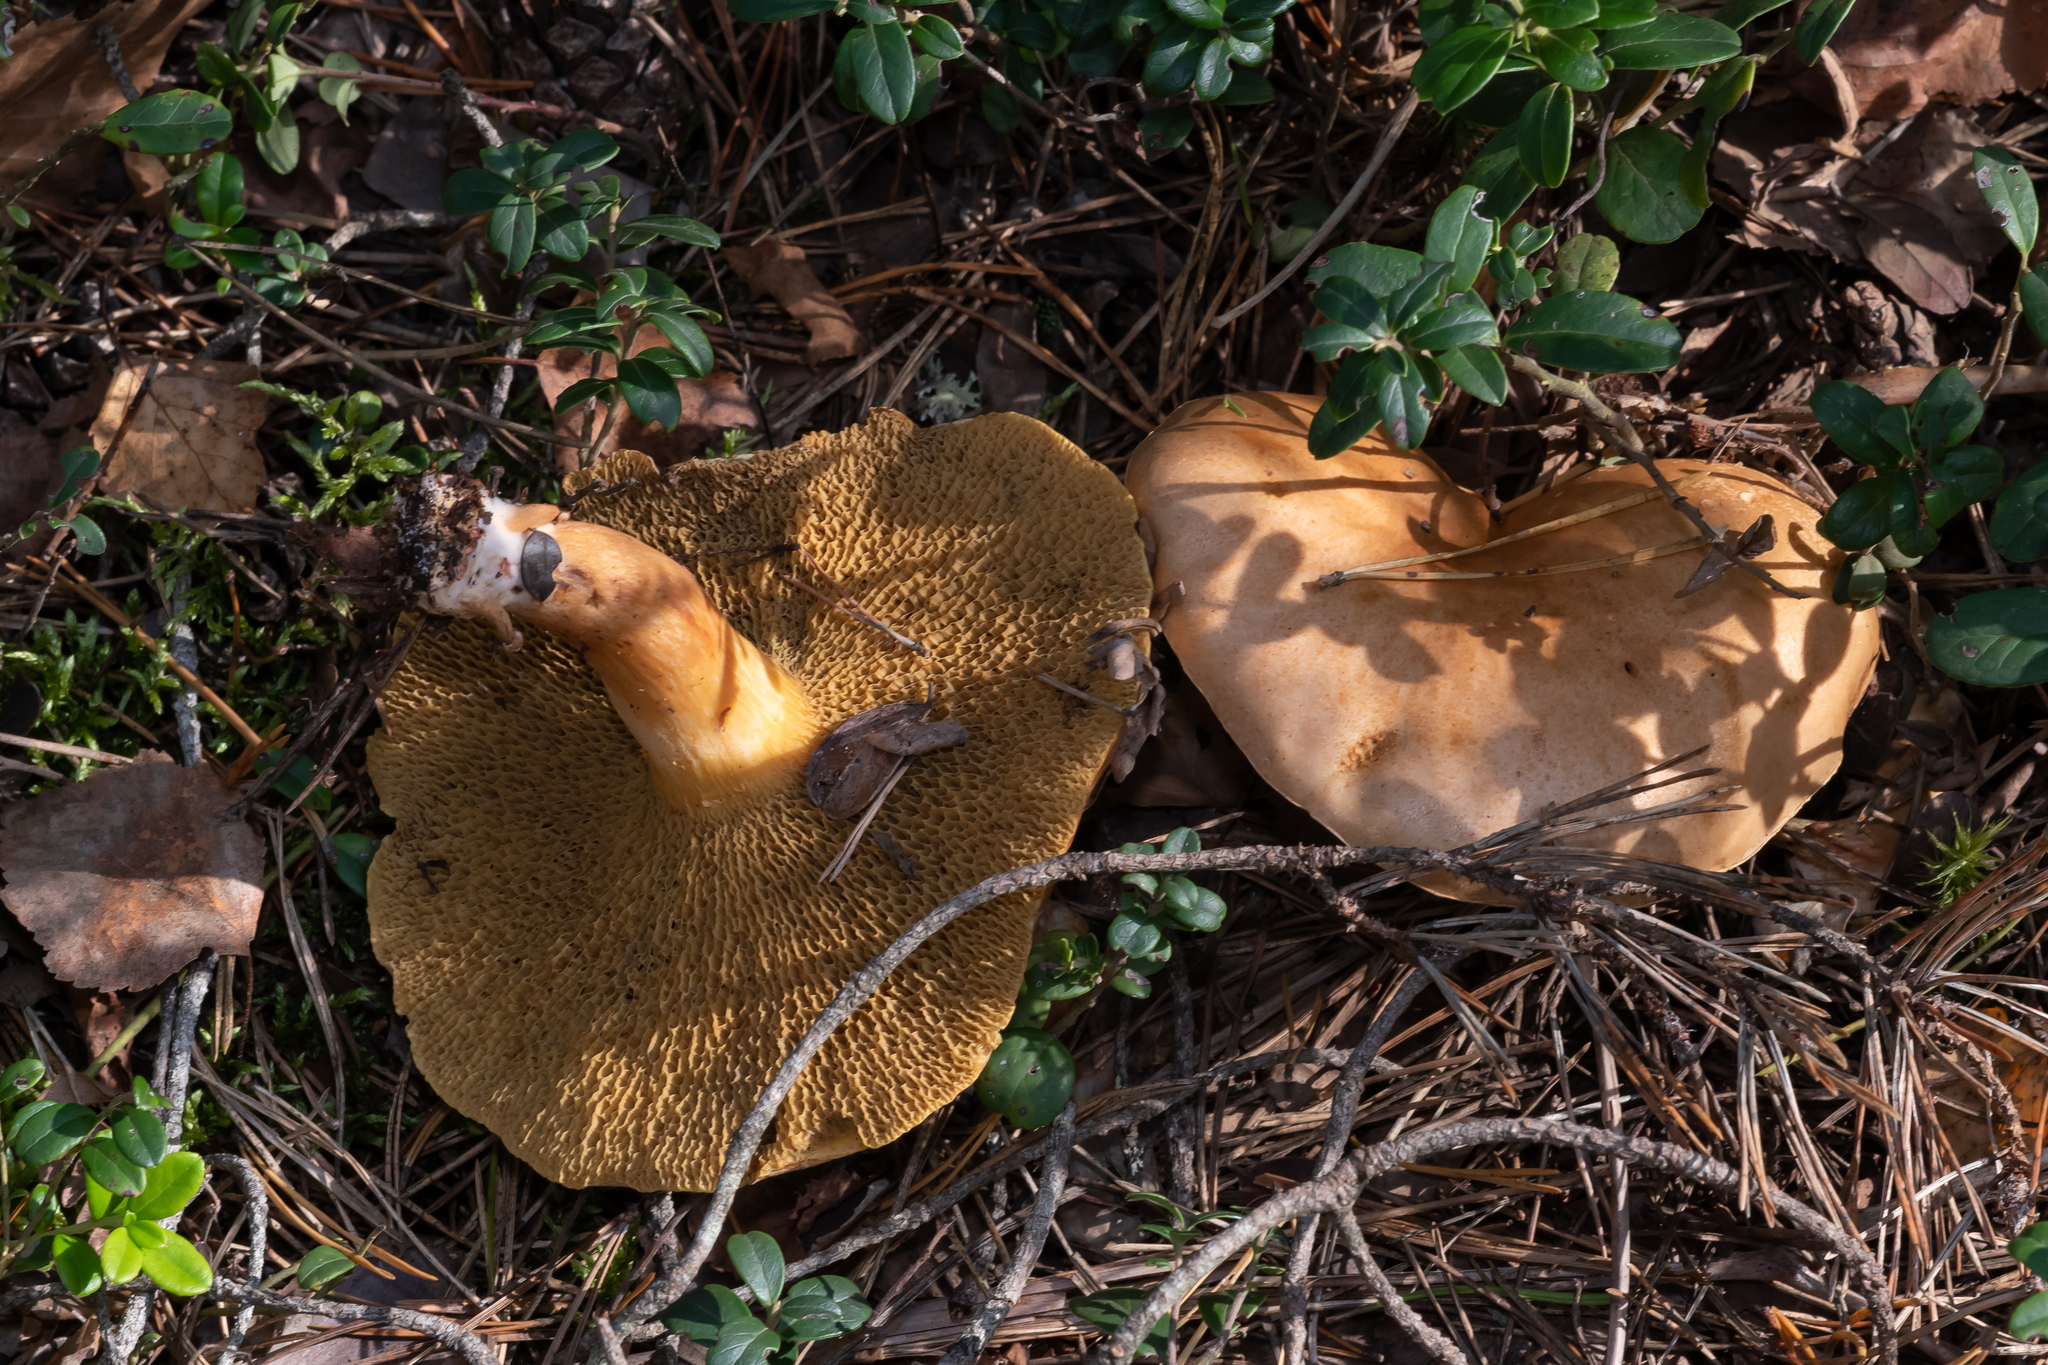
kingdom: Fungi
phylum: Basidiomycota
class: Agaricomycetes
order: Boletales
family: Suillaceae
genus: Suillus
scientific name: Suillus bovinus
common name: Bovine bolete
